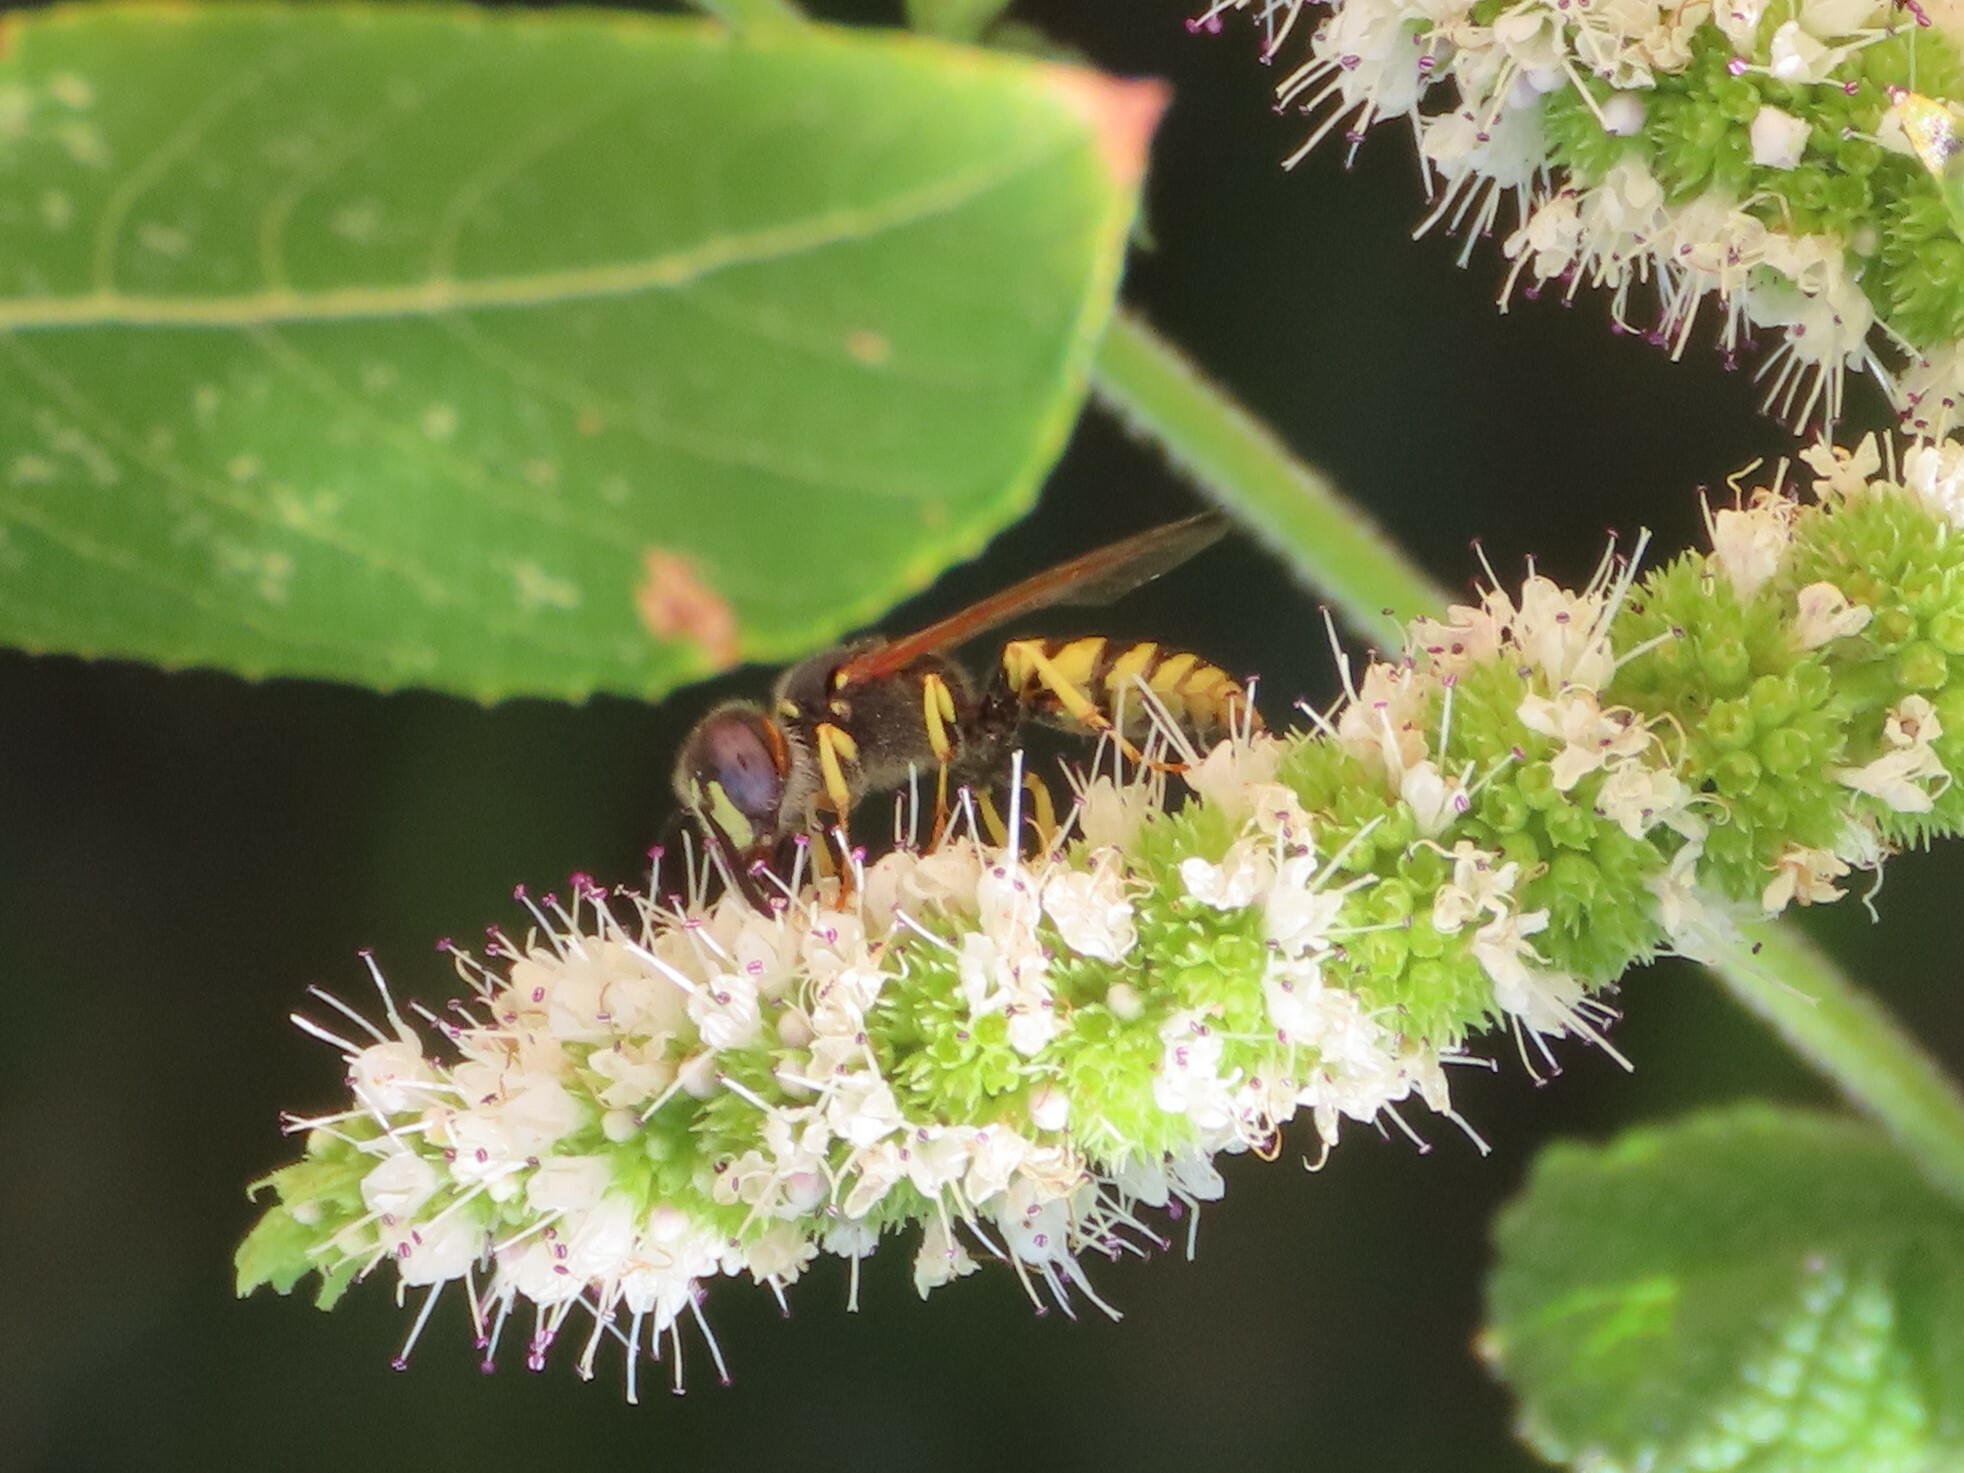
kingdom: Animalia
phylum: Arthropoda
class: Insecta
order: Hymenoptera
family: Crabronidae
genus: Philanthus
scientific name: Philanthus triangulum
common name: Bee wolf
